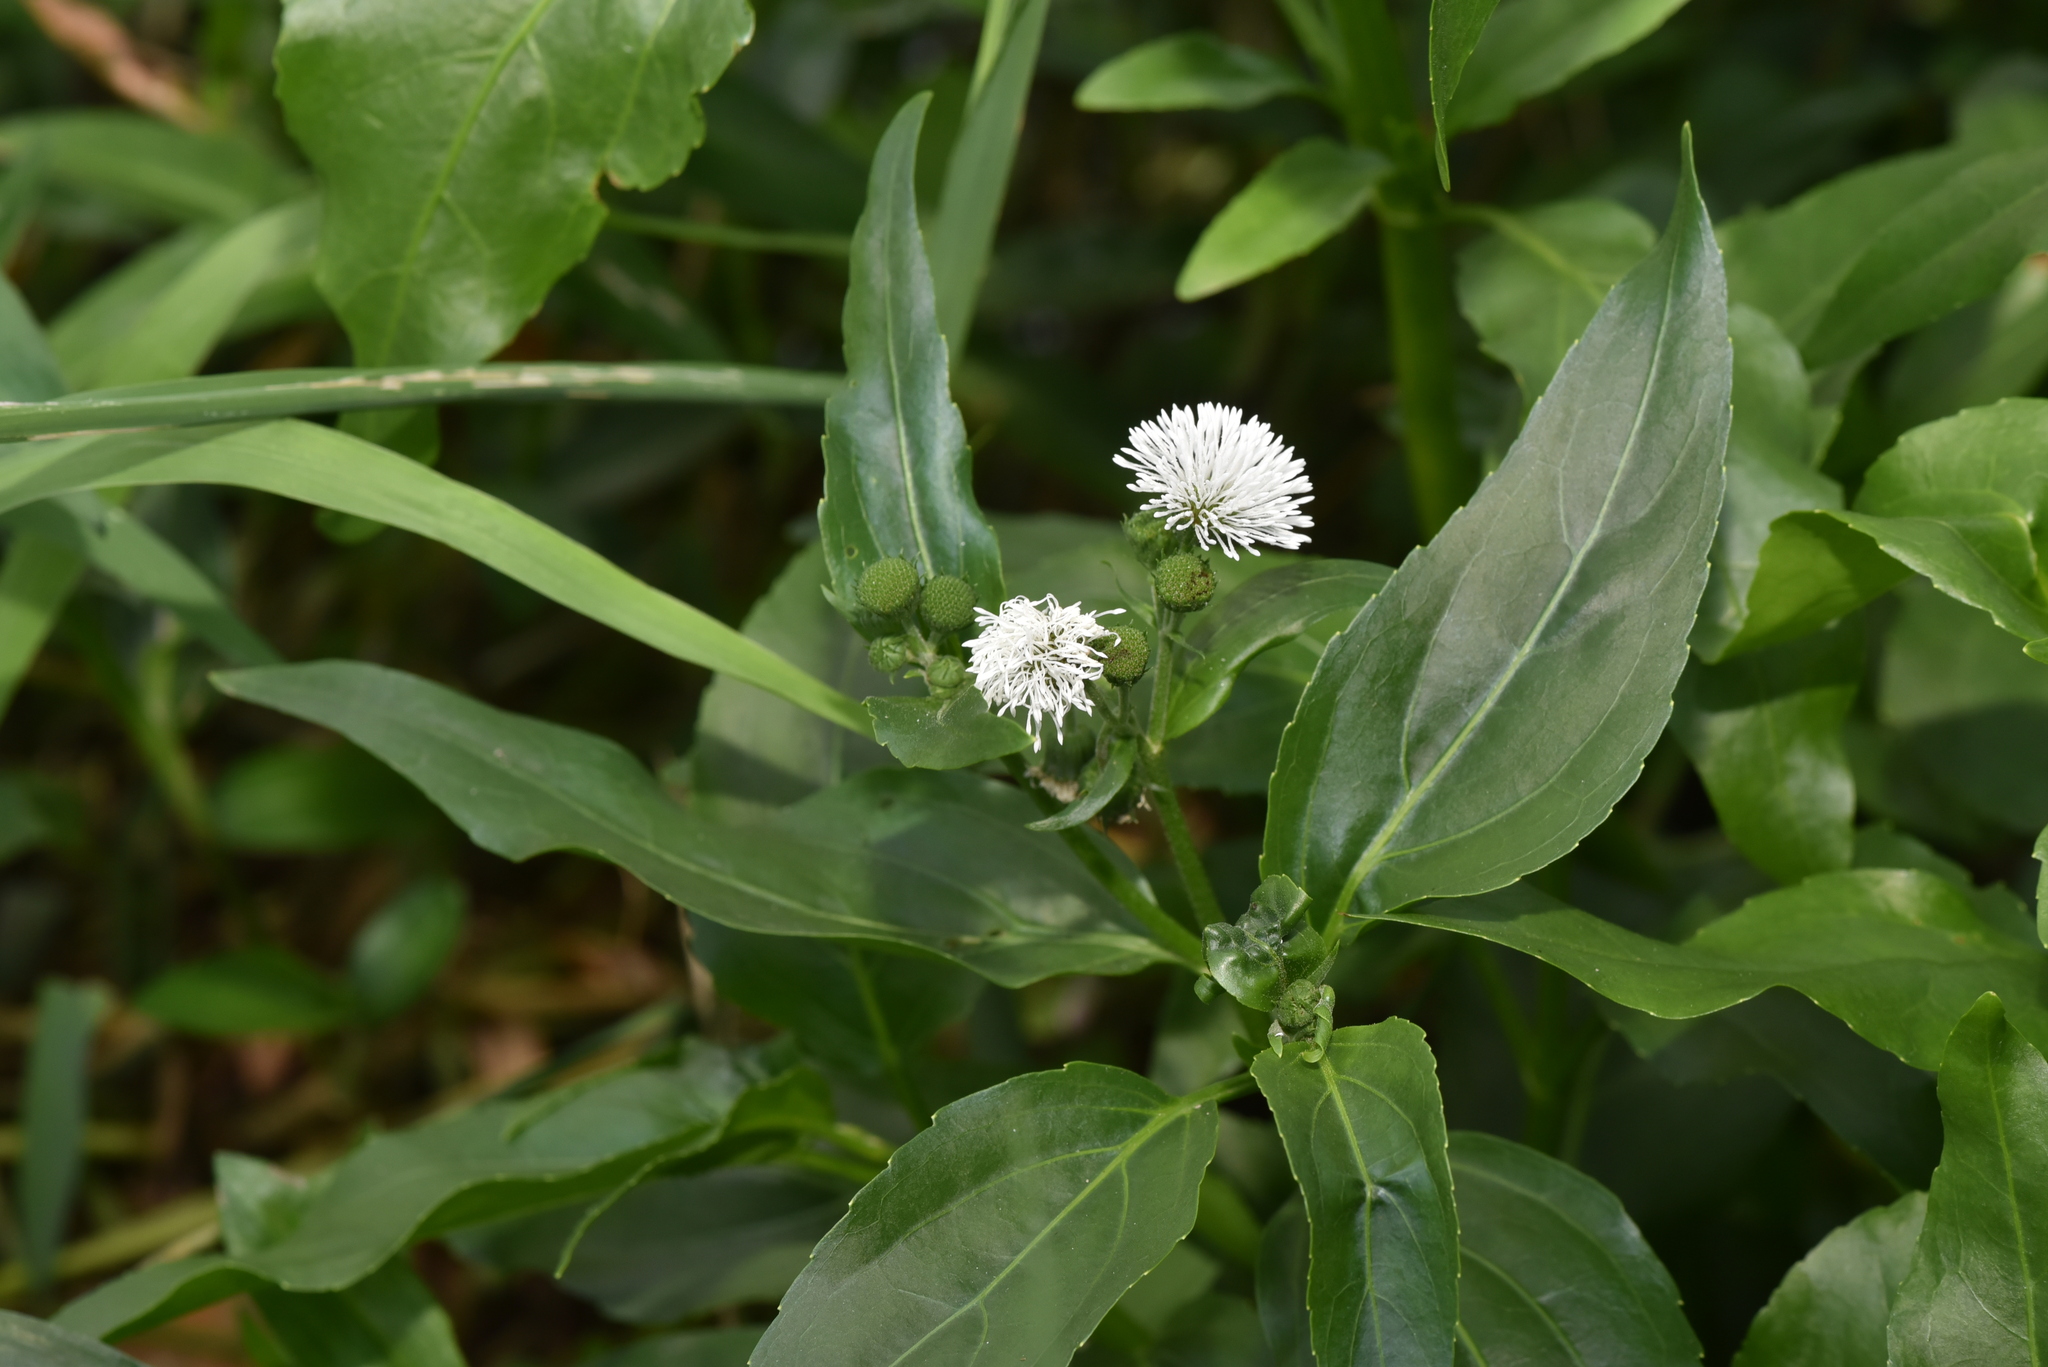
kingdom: Plantae
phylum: Tracheophyta
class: Magnoliopsida
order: Asterales
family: Asteraceae
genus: Gymnocoronis
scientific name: Gymnocoronis spilanthoides
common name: Senegal teaplant
